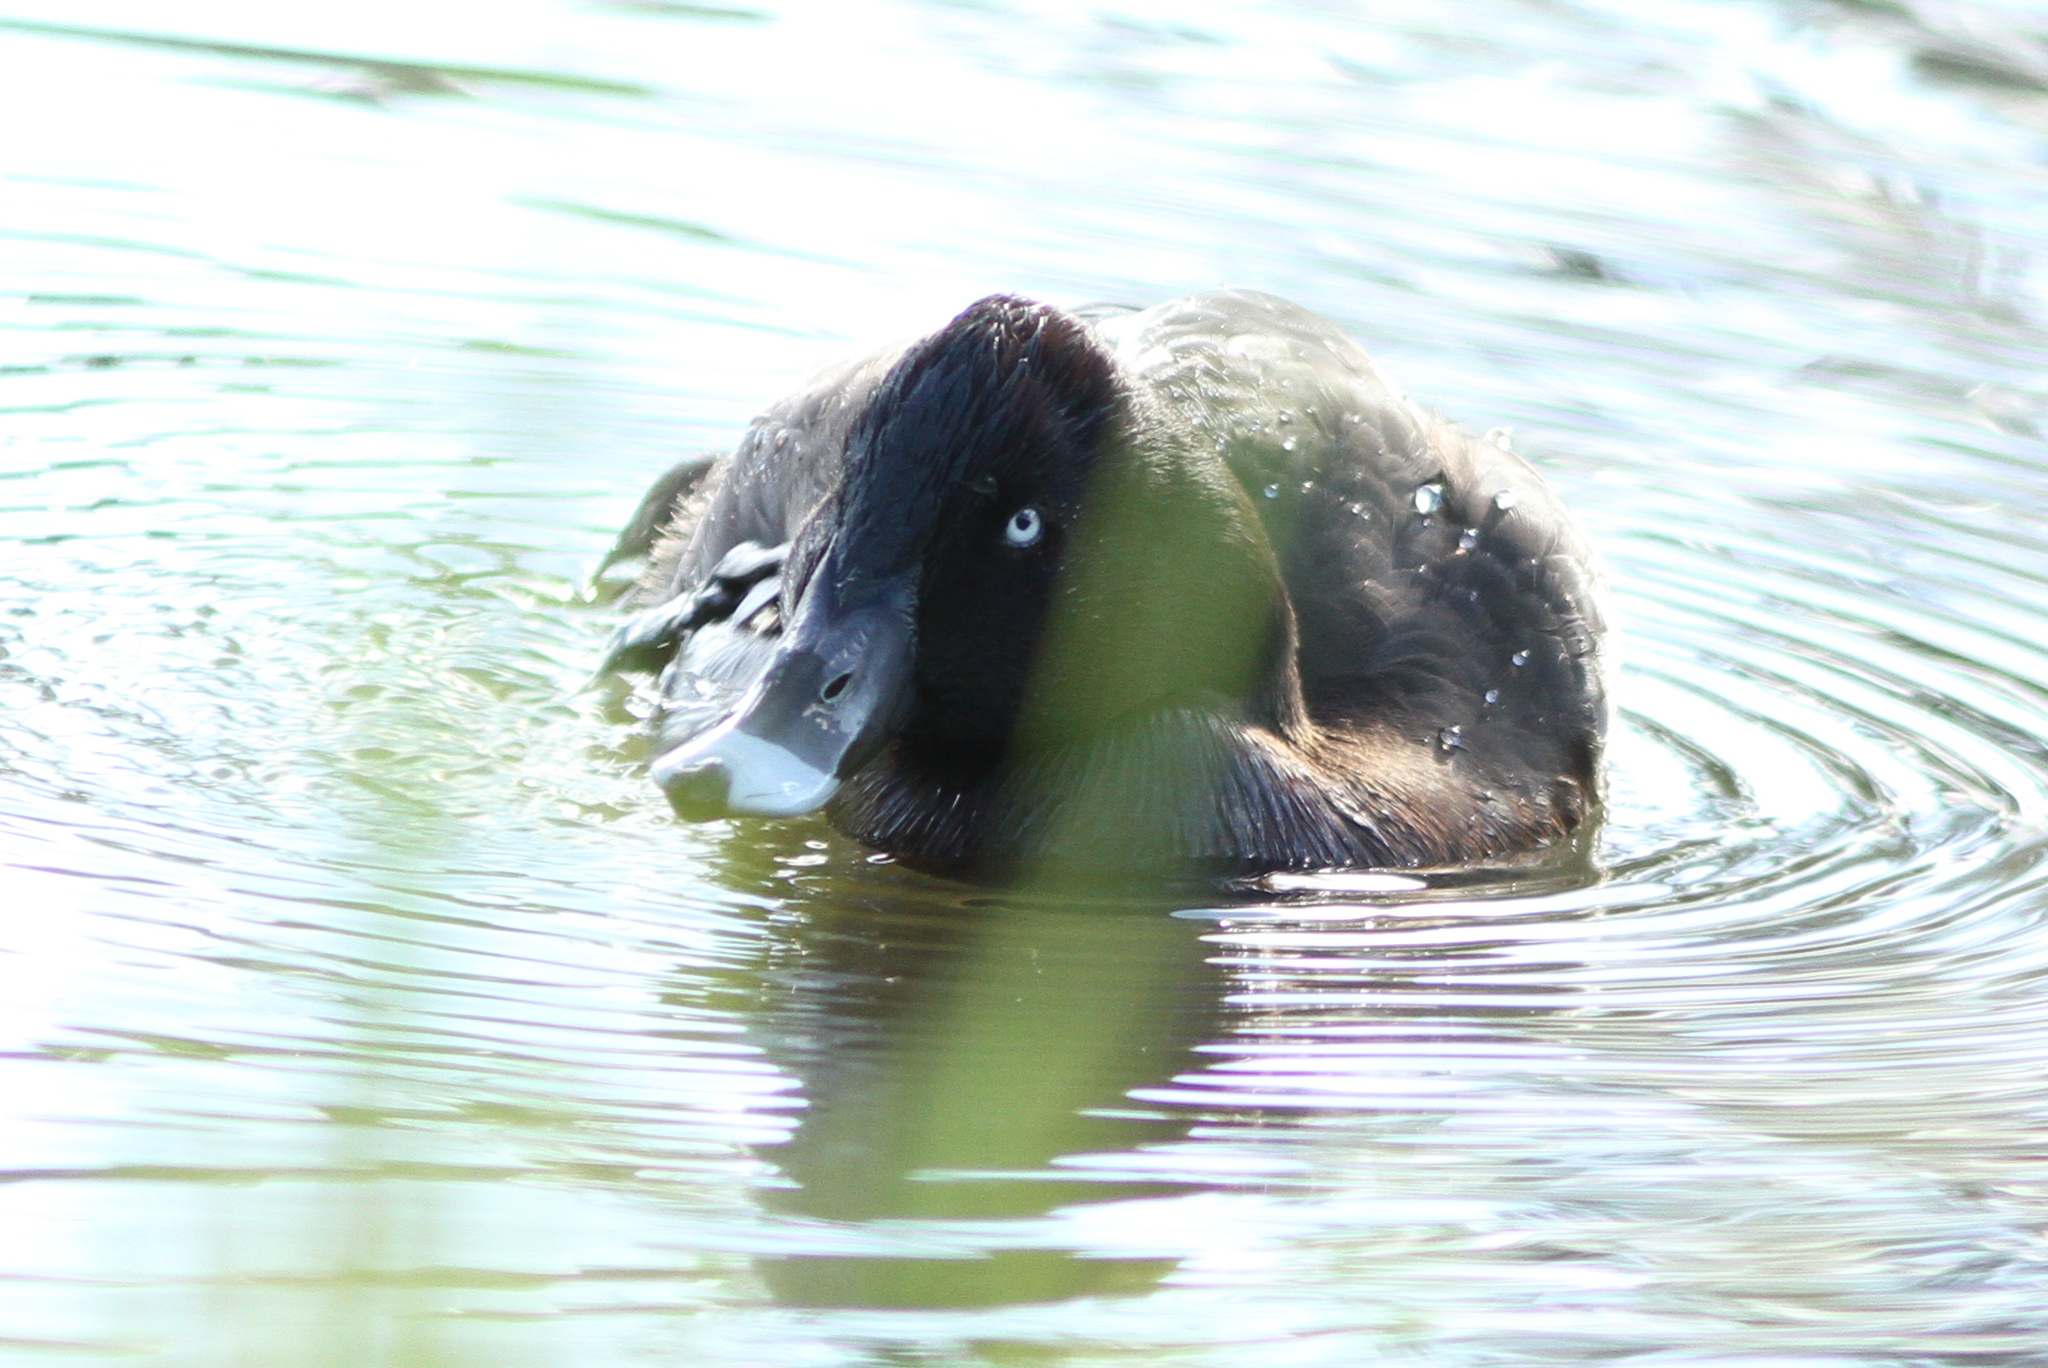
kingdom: Animalia
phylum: Chordata
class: Aves
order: Anseriformes
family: Anatidae
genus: Aythya
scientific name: Aythya australis
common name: Hardhead
